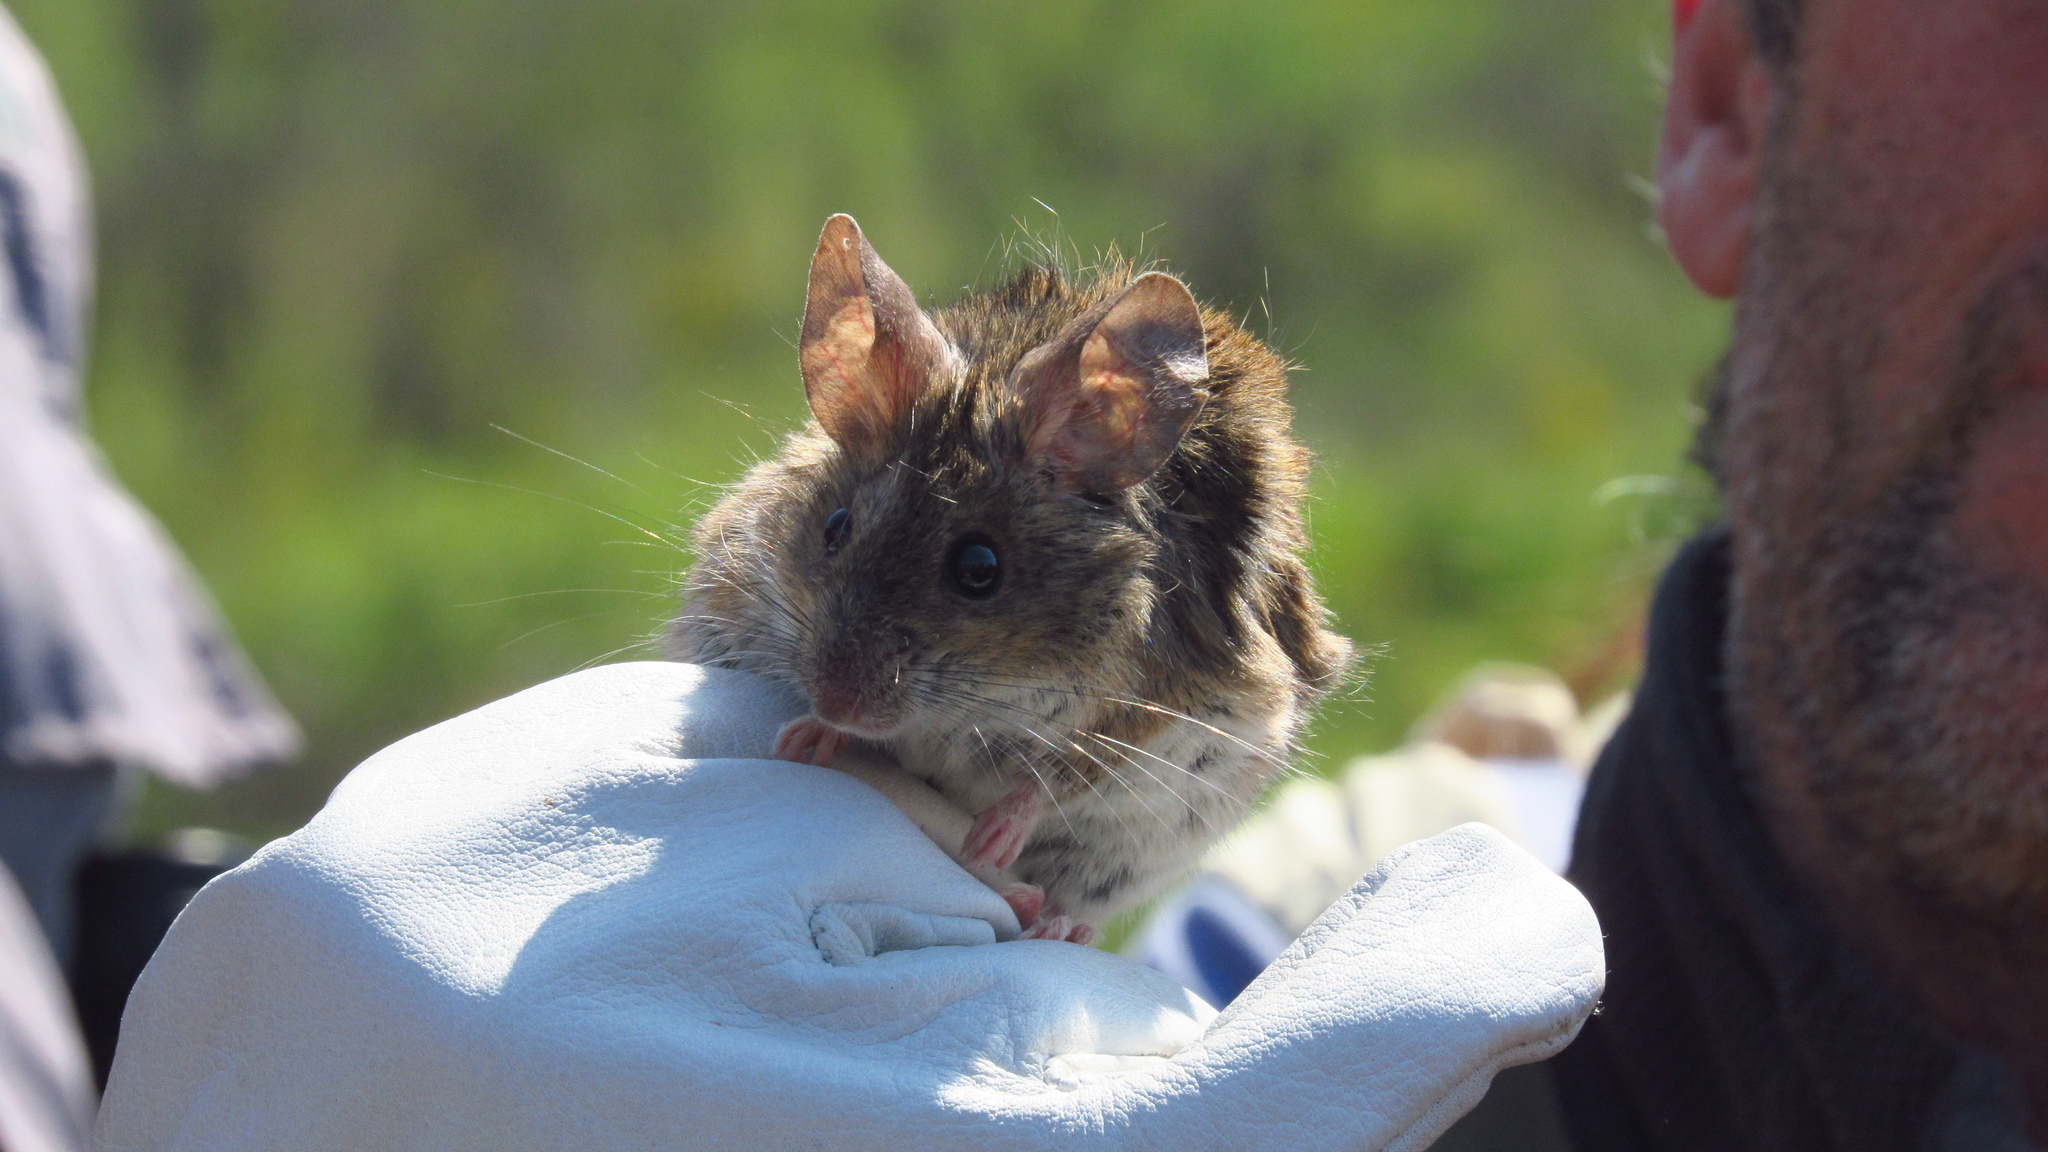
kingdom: Animalia
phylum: Chordata
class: Mammalia
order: Rodentia
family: Cricetidae
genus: Phyllotis
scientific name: Phyllotis darwini
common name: Darwin's leaf-eared mouse
